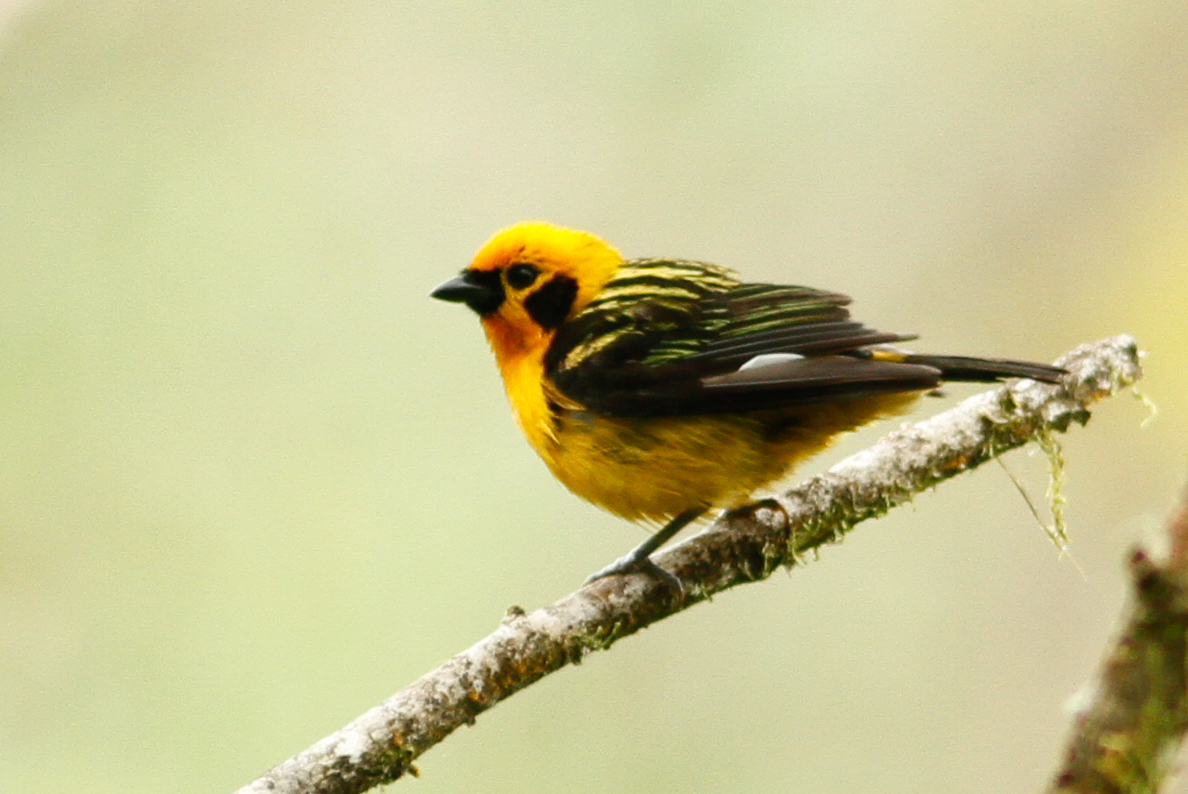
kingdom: Animalia
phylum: Chordata
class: Aves
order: Passeriformes
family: Thraupidae
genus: Tangara
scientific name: Tangara arthus
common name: Golden tanager
